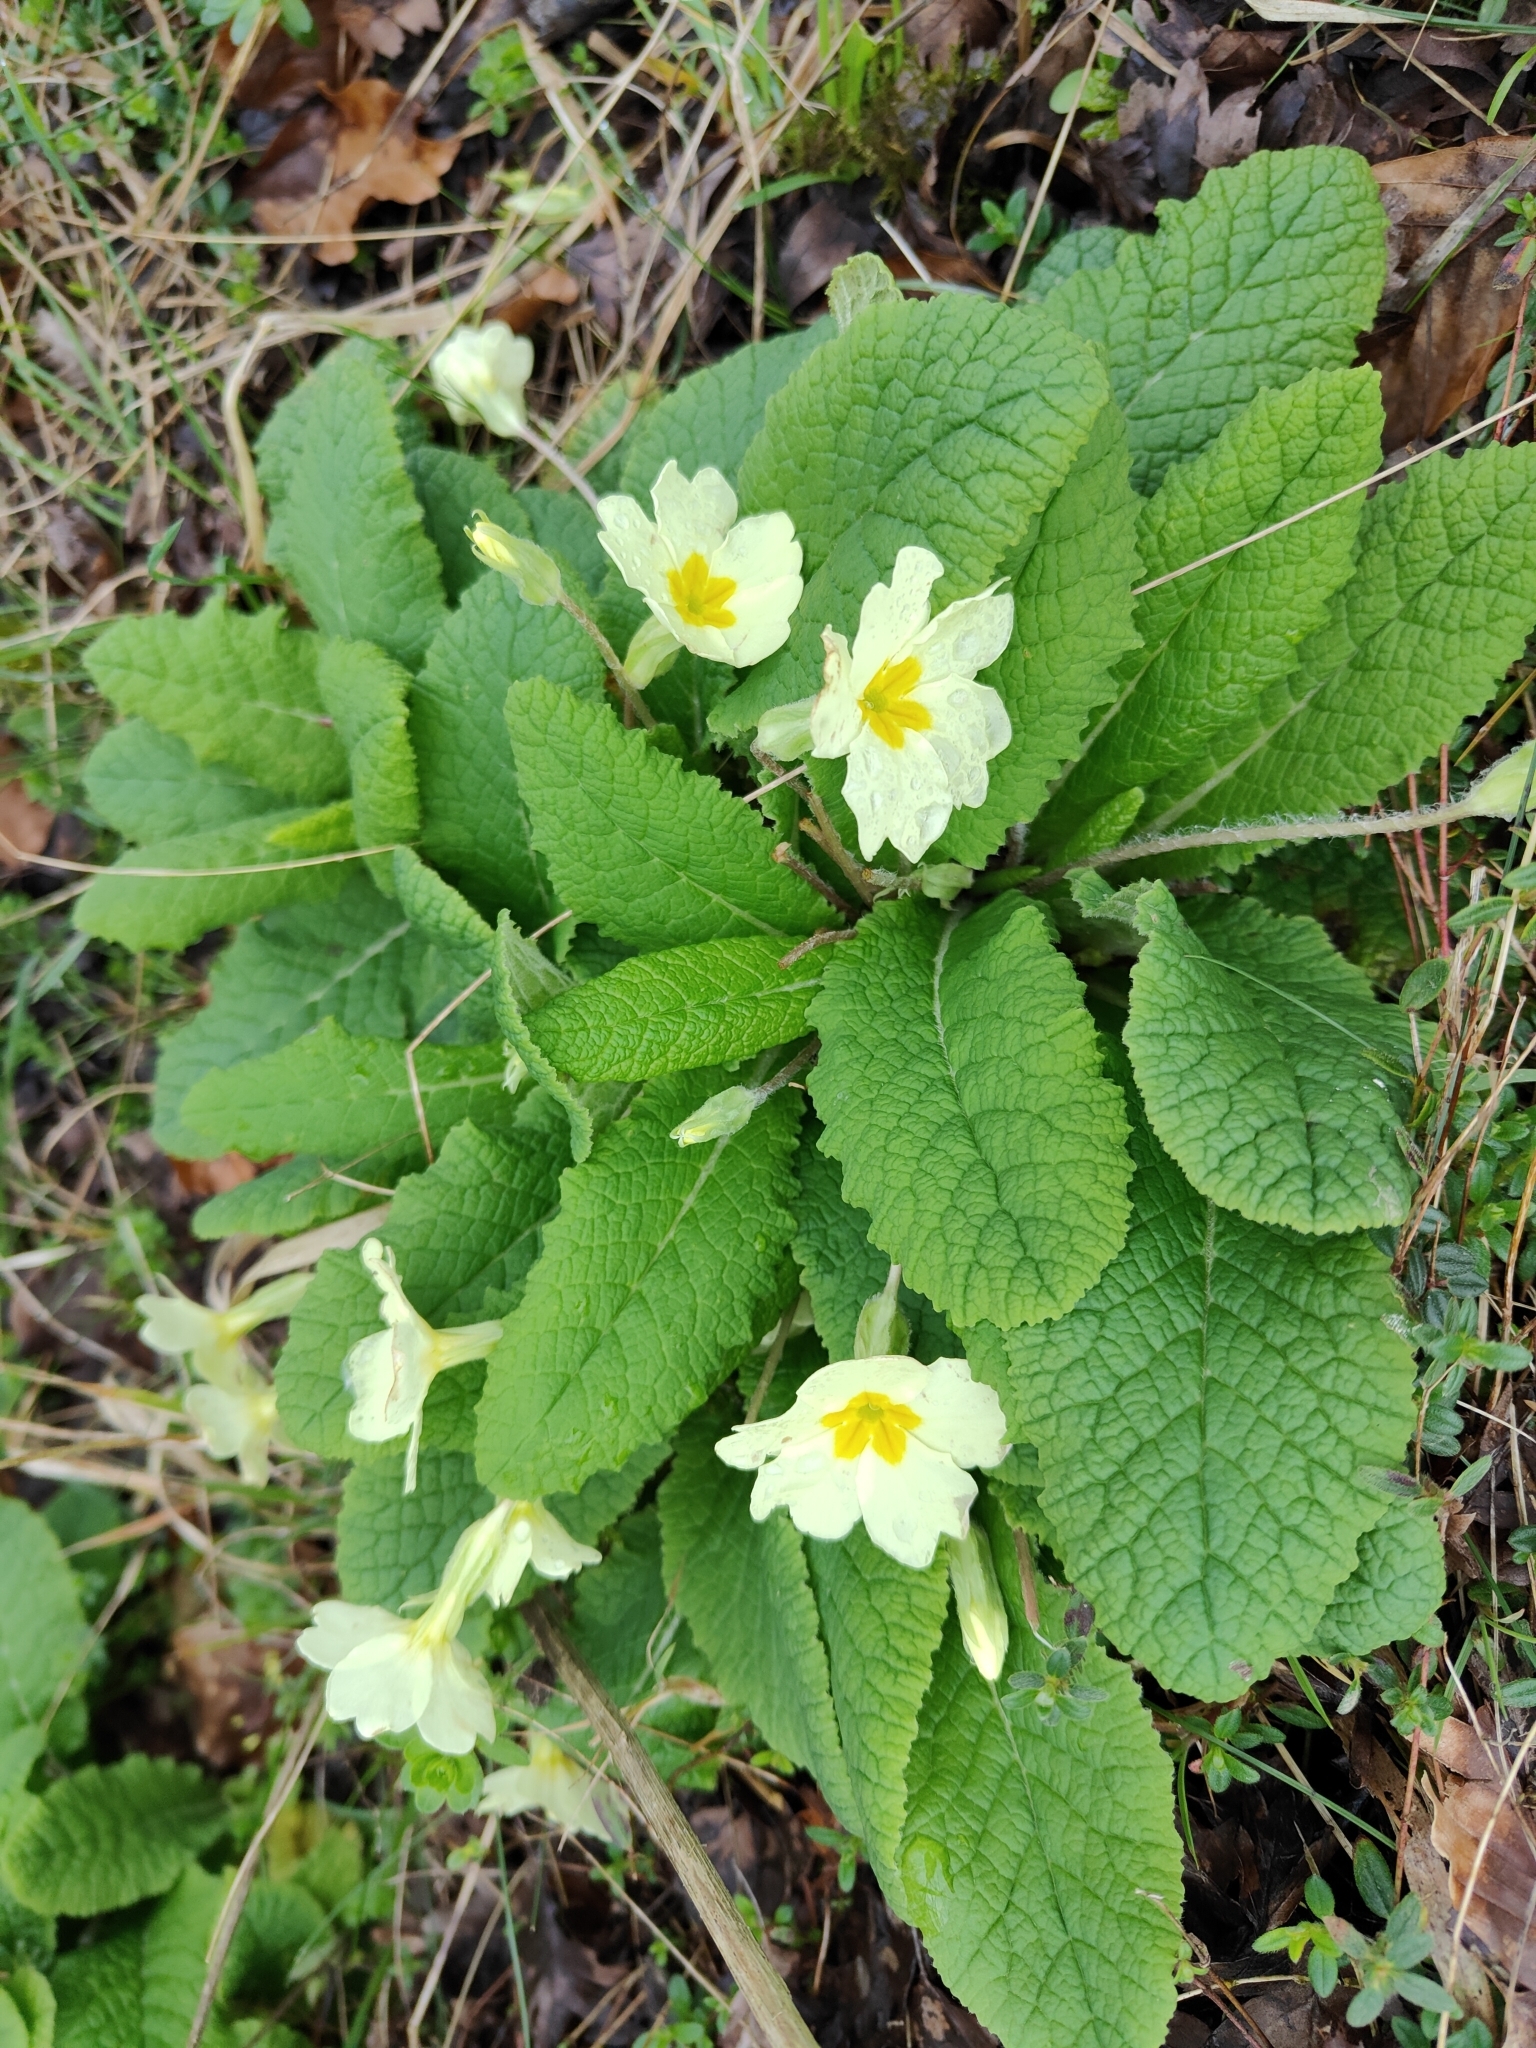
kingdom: Plantae
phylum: Tracheophyta
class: Magnoliopsida
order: Ericales
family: Primulaceae
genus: Primula
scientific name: Primula vulgaris
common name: Primrose
